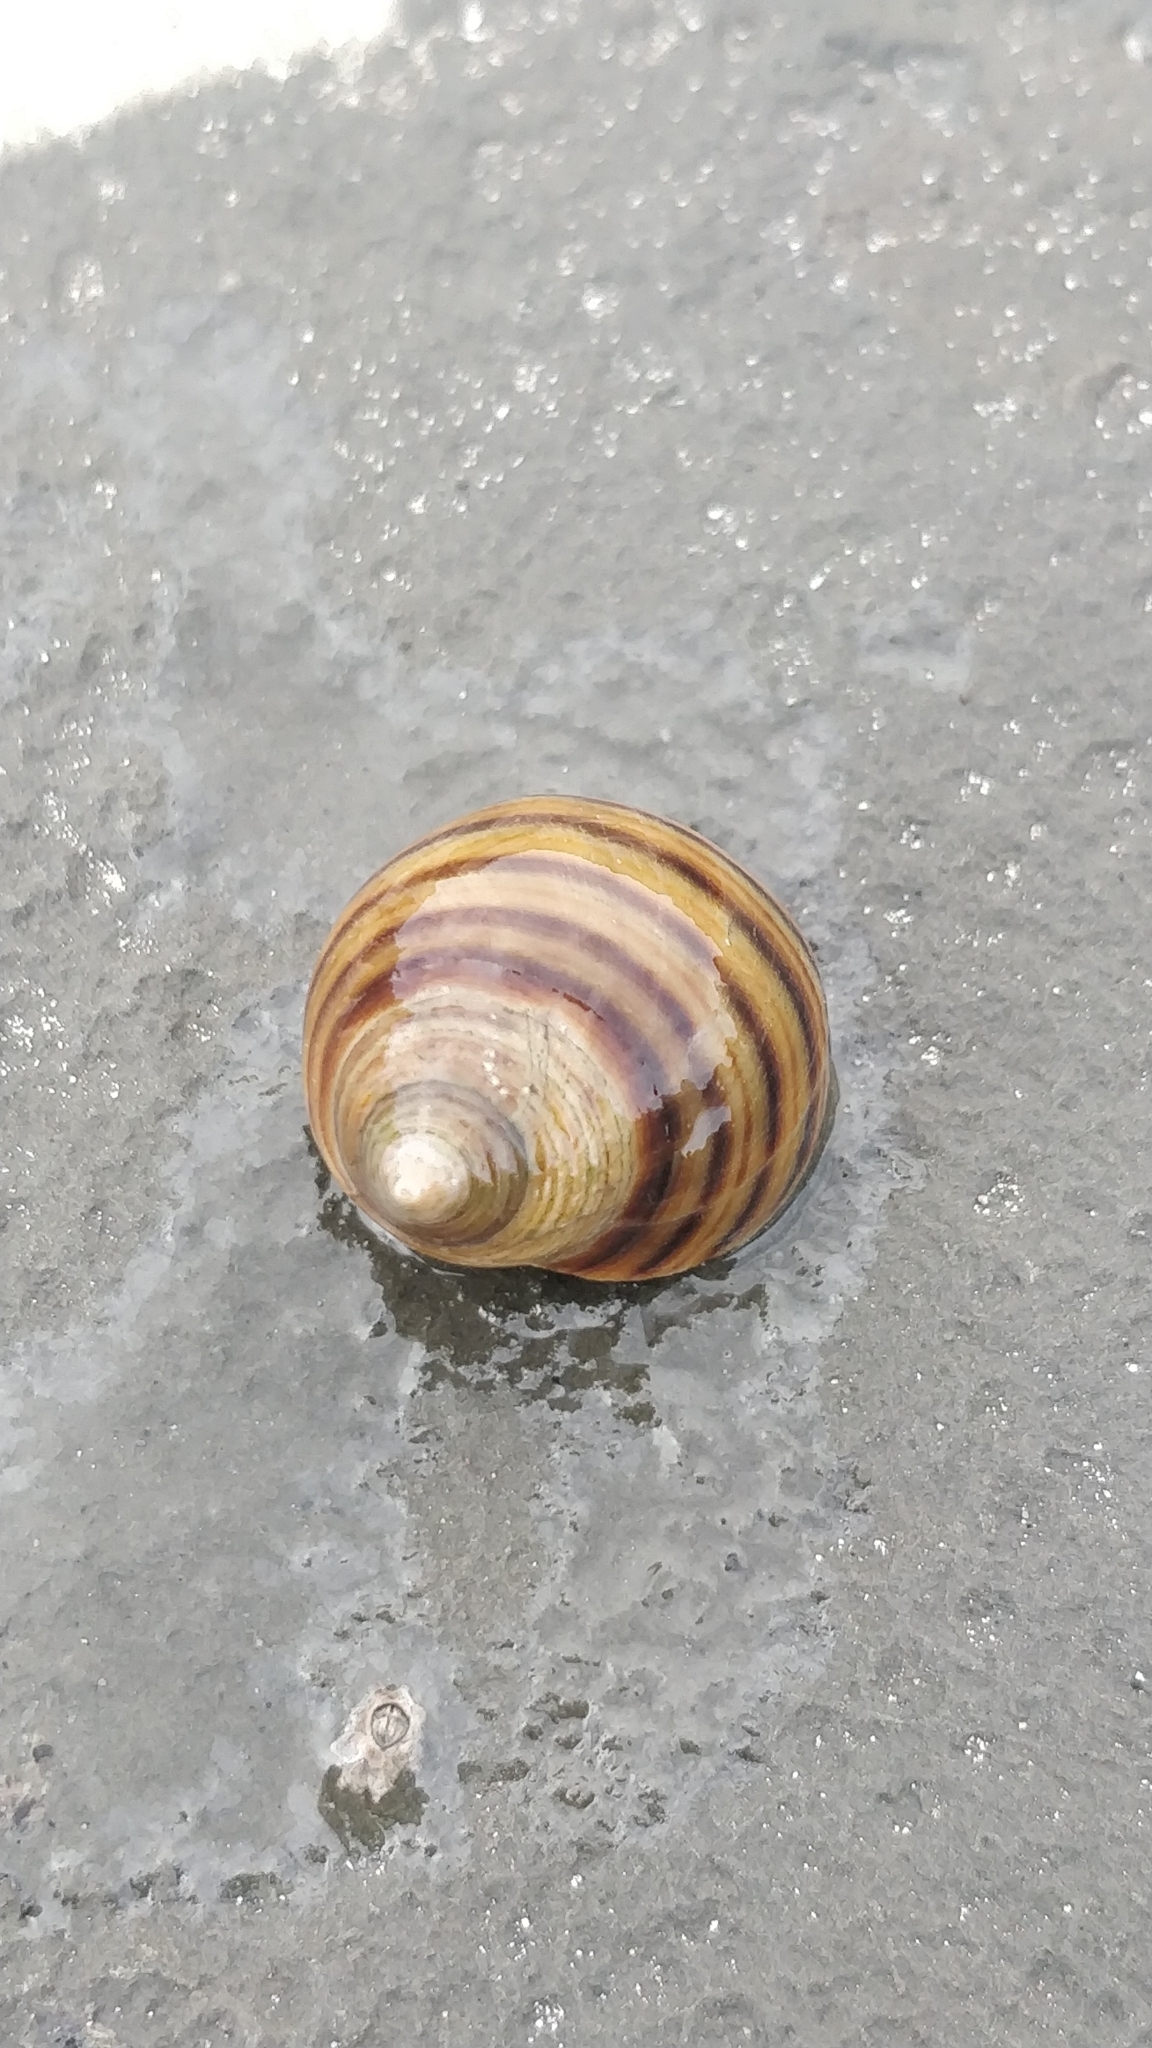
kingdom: Animalia
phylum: Mollusca
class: Gastropoda
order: Littorinimorpha
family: Littorinidae
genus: Littorina
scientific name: Littorina littorea
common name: Common periwinkle
